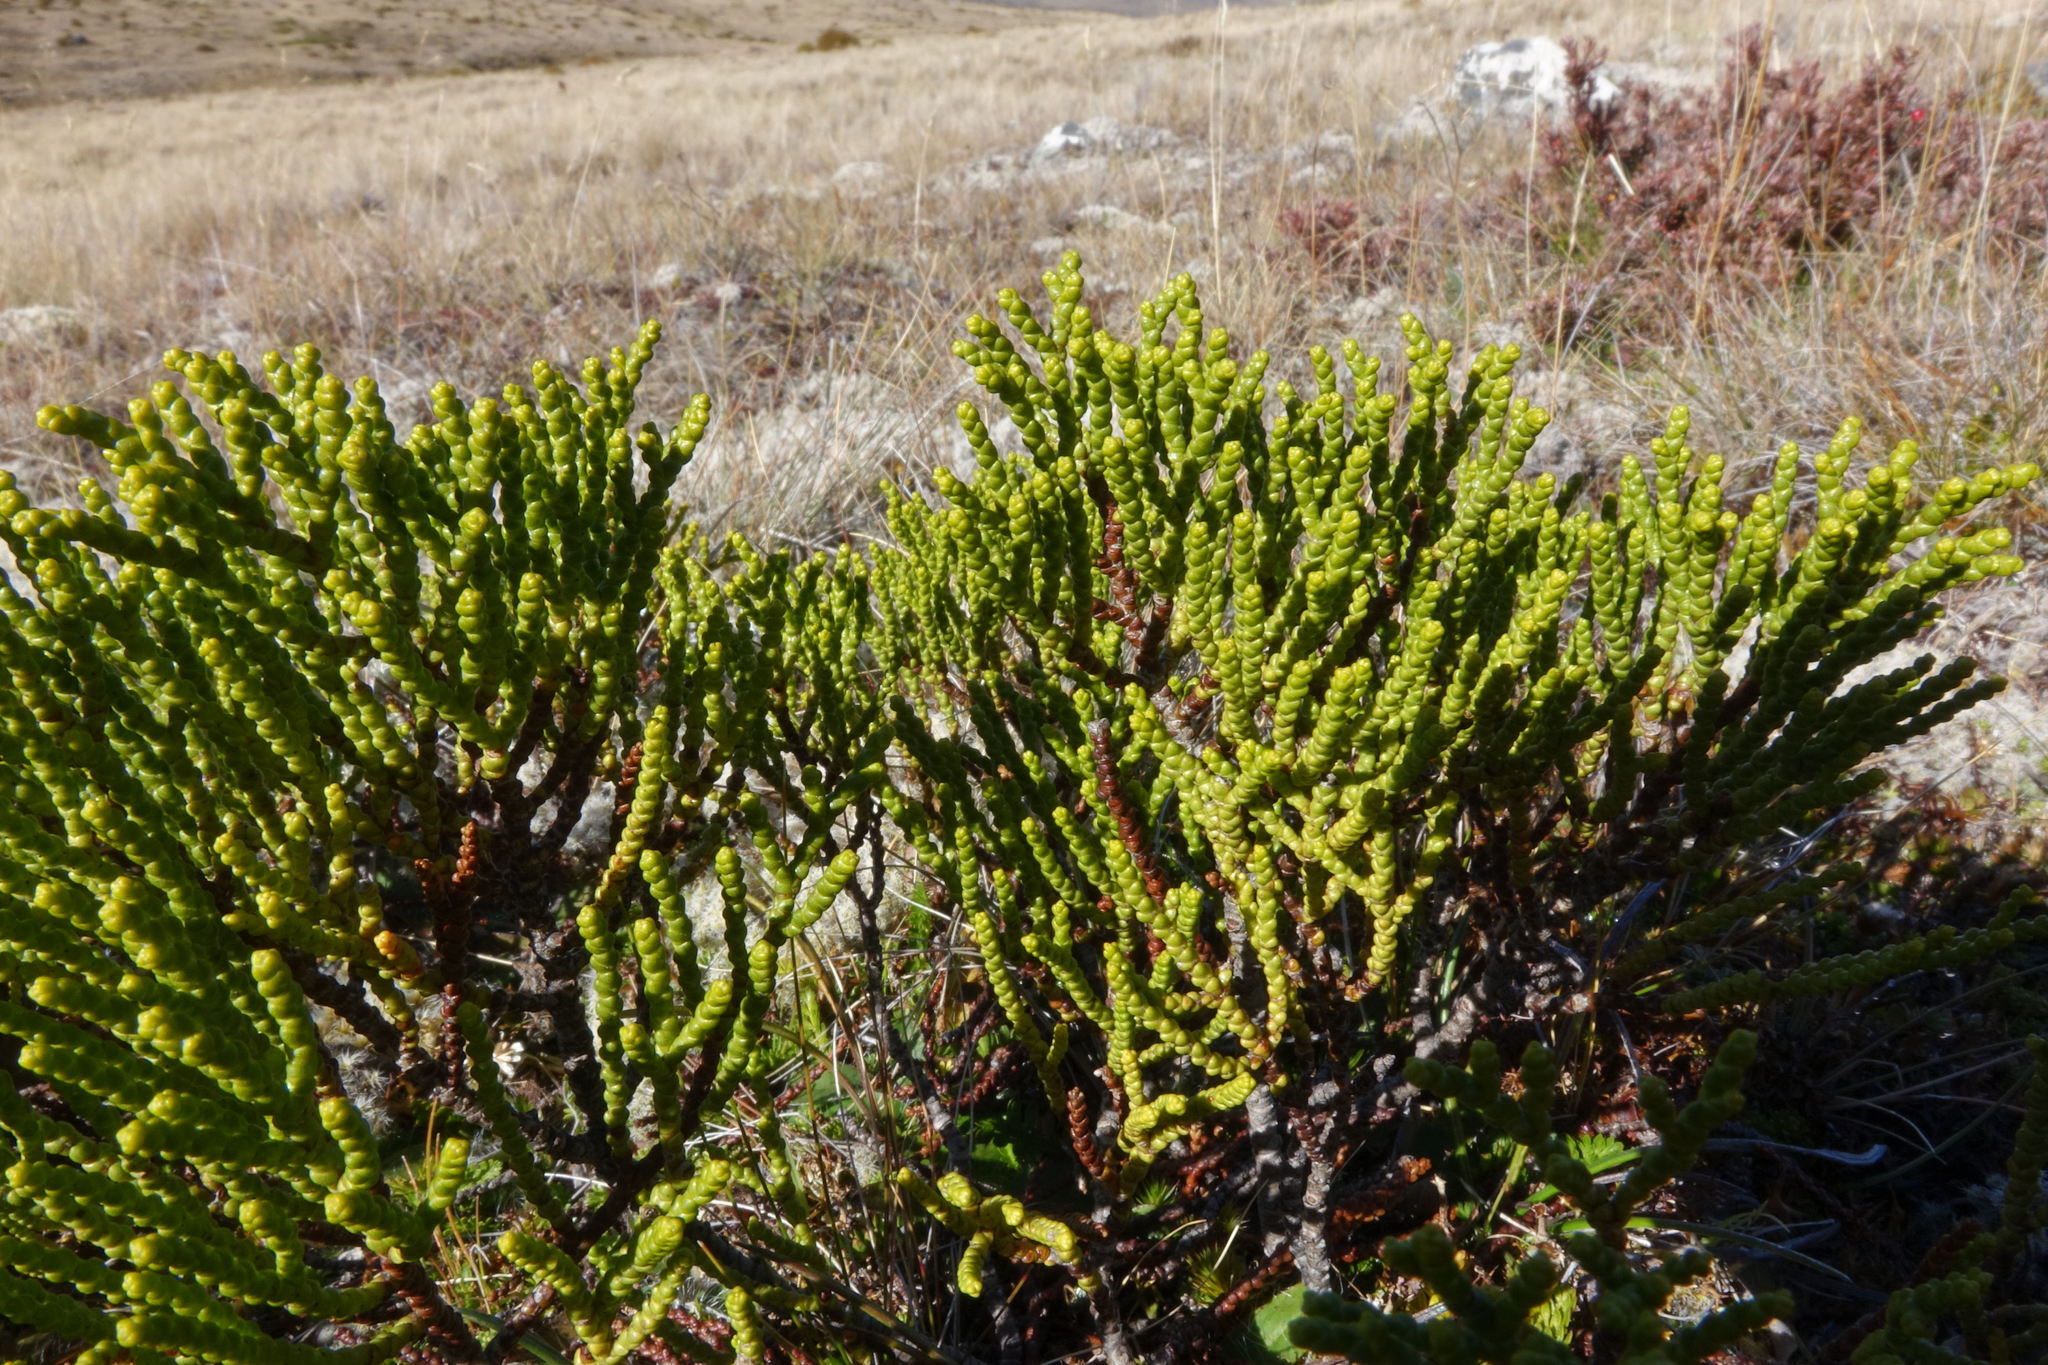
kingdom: Plantae
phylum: Tracheophyta
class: Magnoliopsida
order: Lamiales
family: Plantaginaceae
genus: Veronica
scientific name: Veronica propinqua
